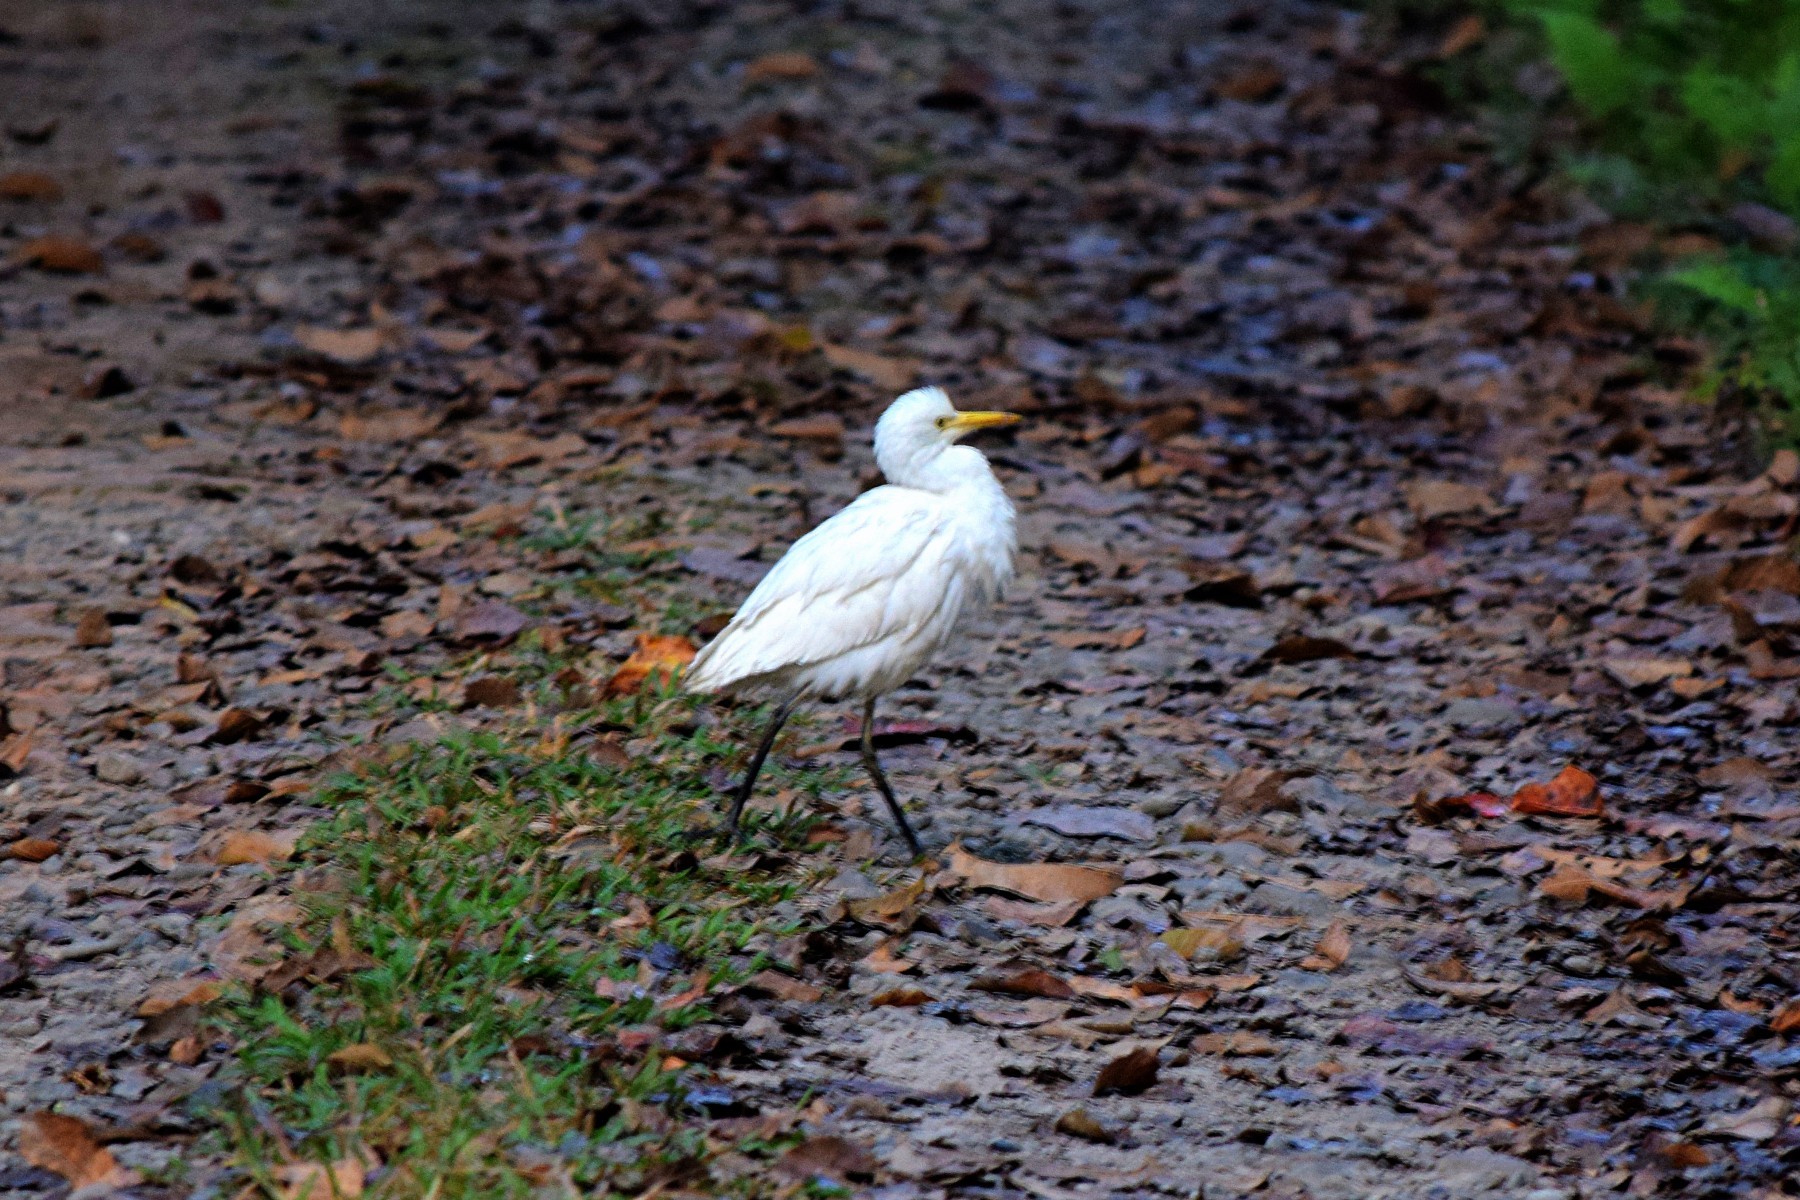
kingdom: Animalia
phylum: Chordata
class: Aves
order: Pelecaniformes
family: Ardeidae
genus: Bubulcus
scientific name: Bubulcus coromandus
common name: Eastern cattle egret
